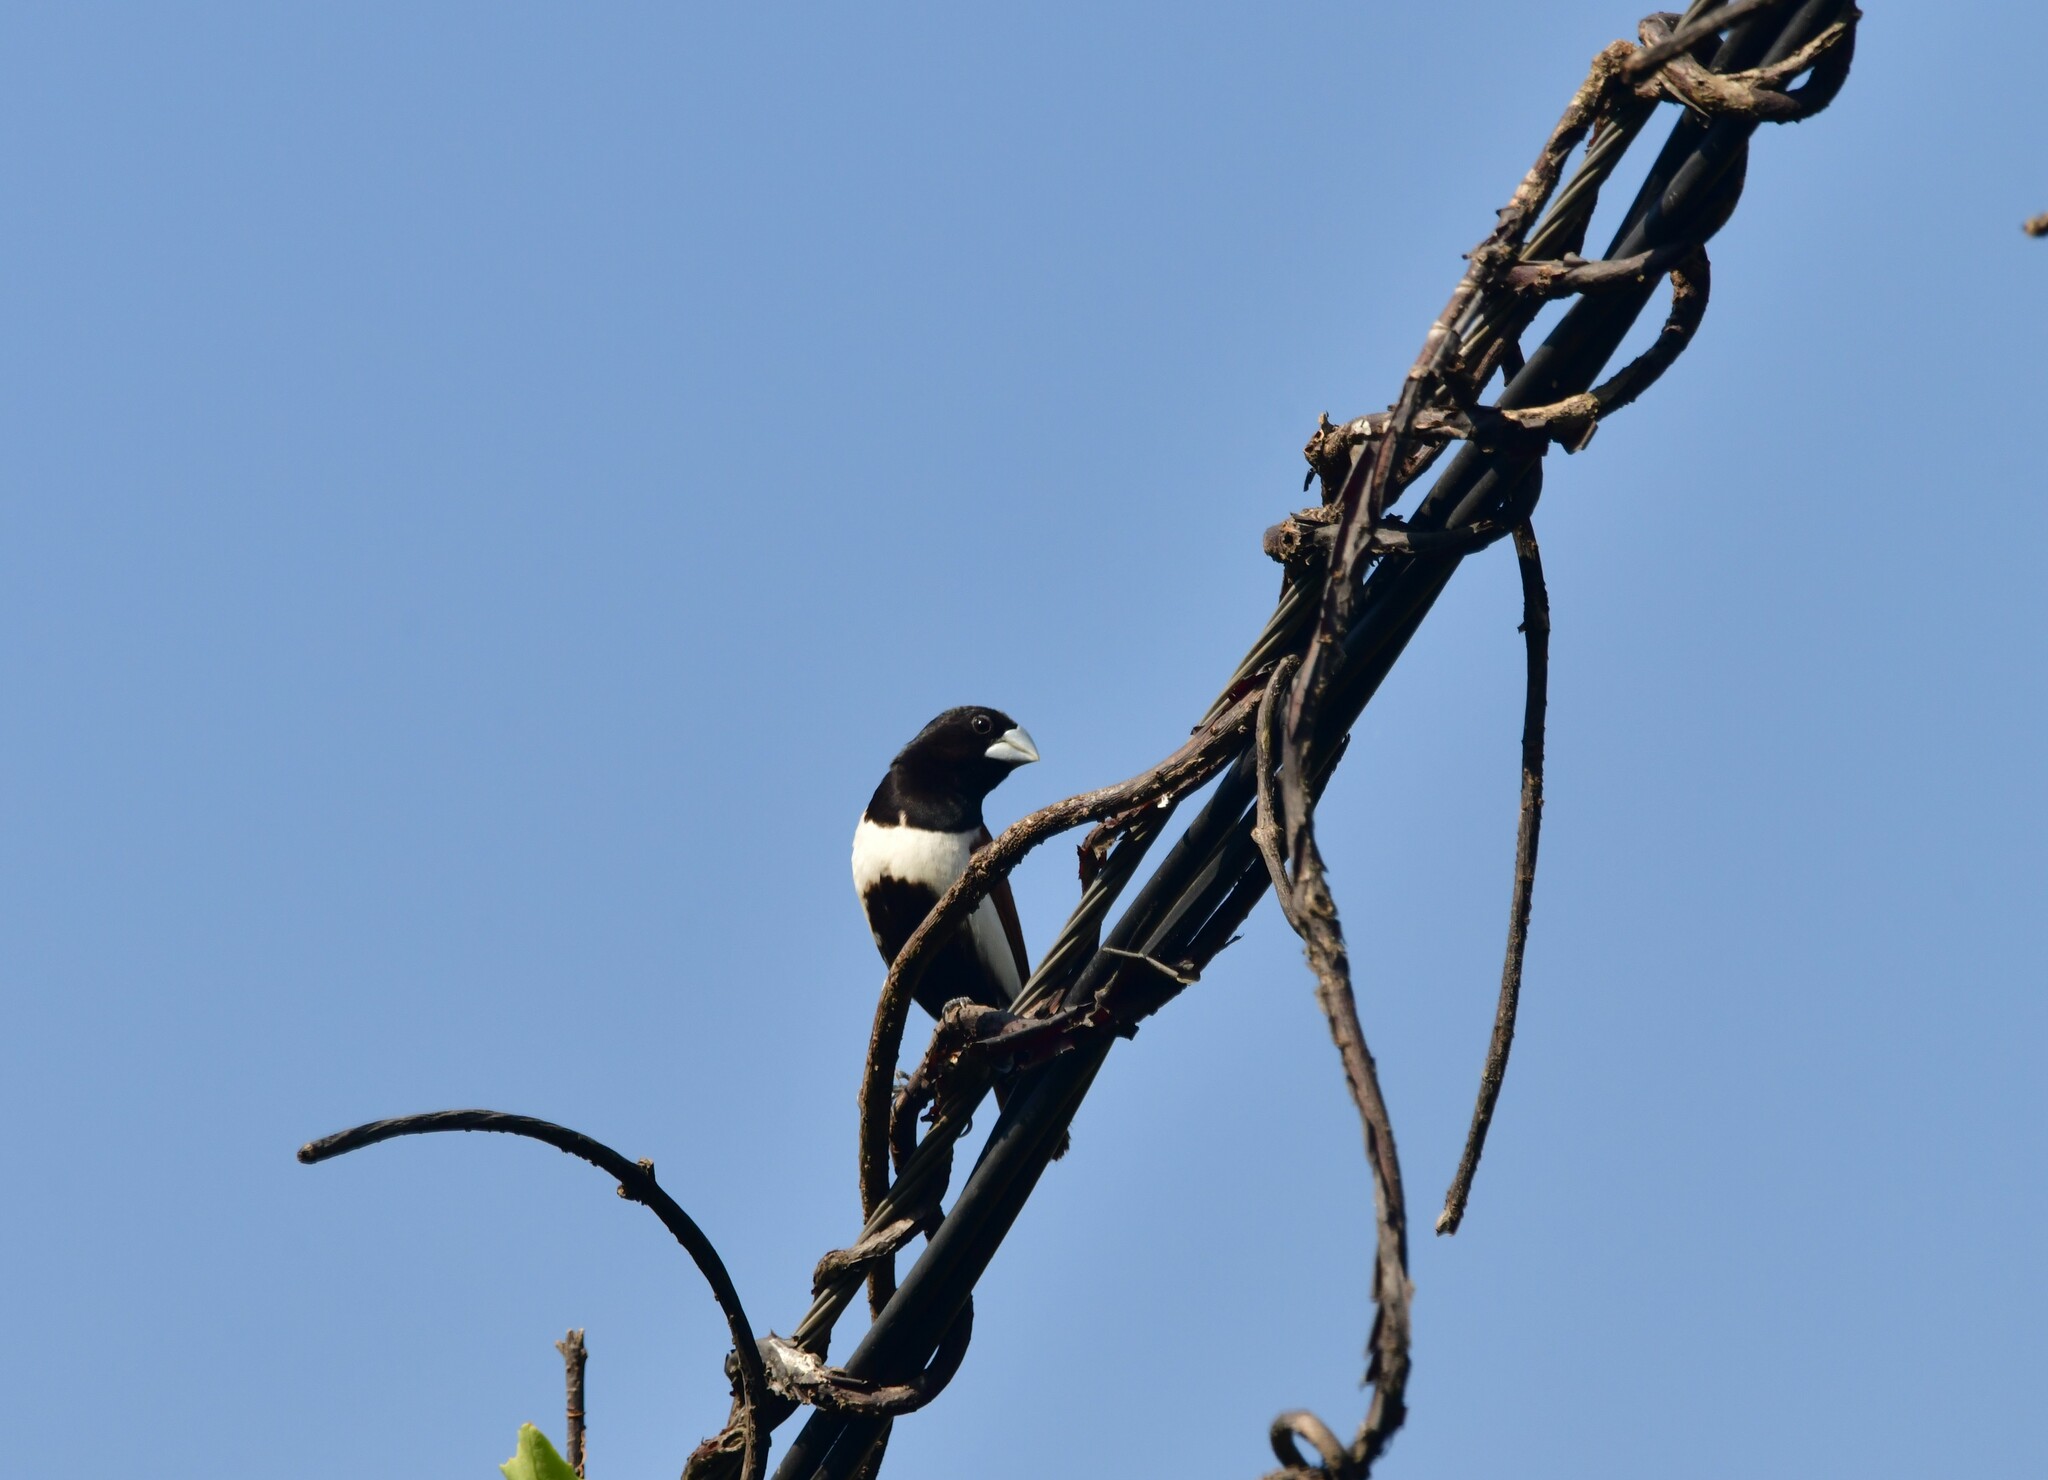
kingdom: Animalia
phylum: Chordata
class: Aves
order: Passeriformes
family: Estrildidae
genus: Lonchura
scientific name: Lonchura malacca
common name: Tricolored munia
